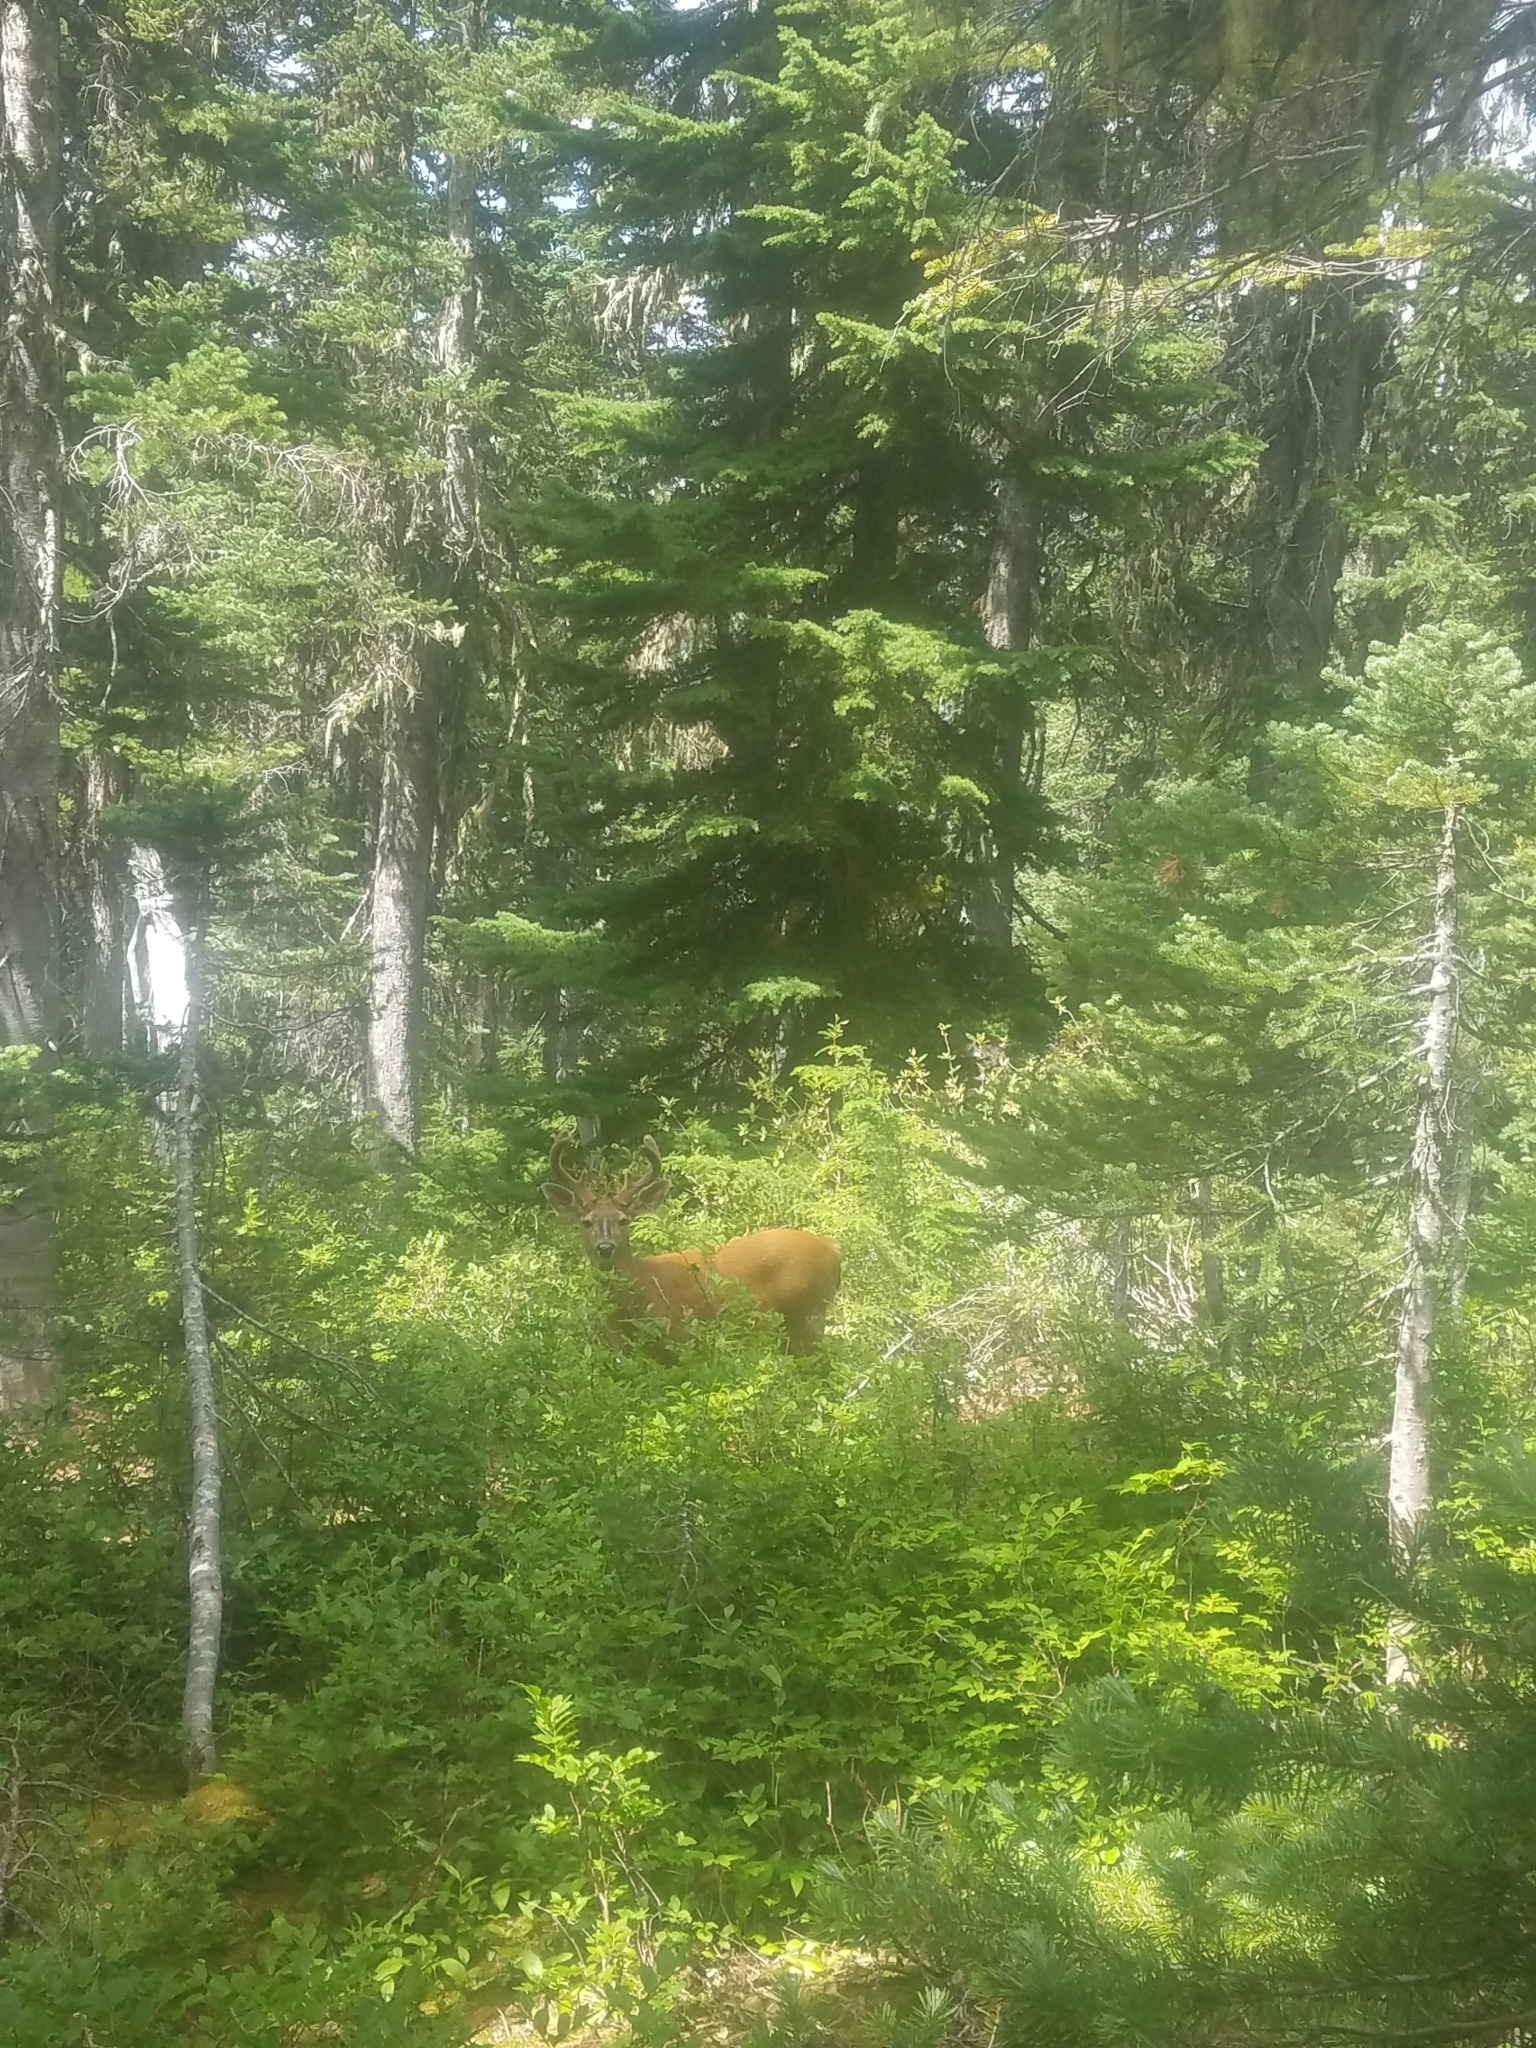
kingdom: Animalia
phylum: Chordata
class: Mammalia
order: Artiodactyla
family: Cervidae
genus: Odocoileus
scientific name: Odocoileus hemionus
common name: Mule deer
